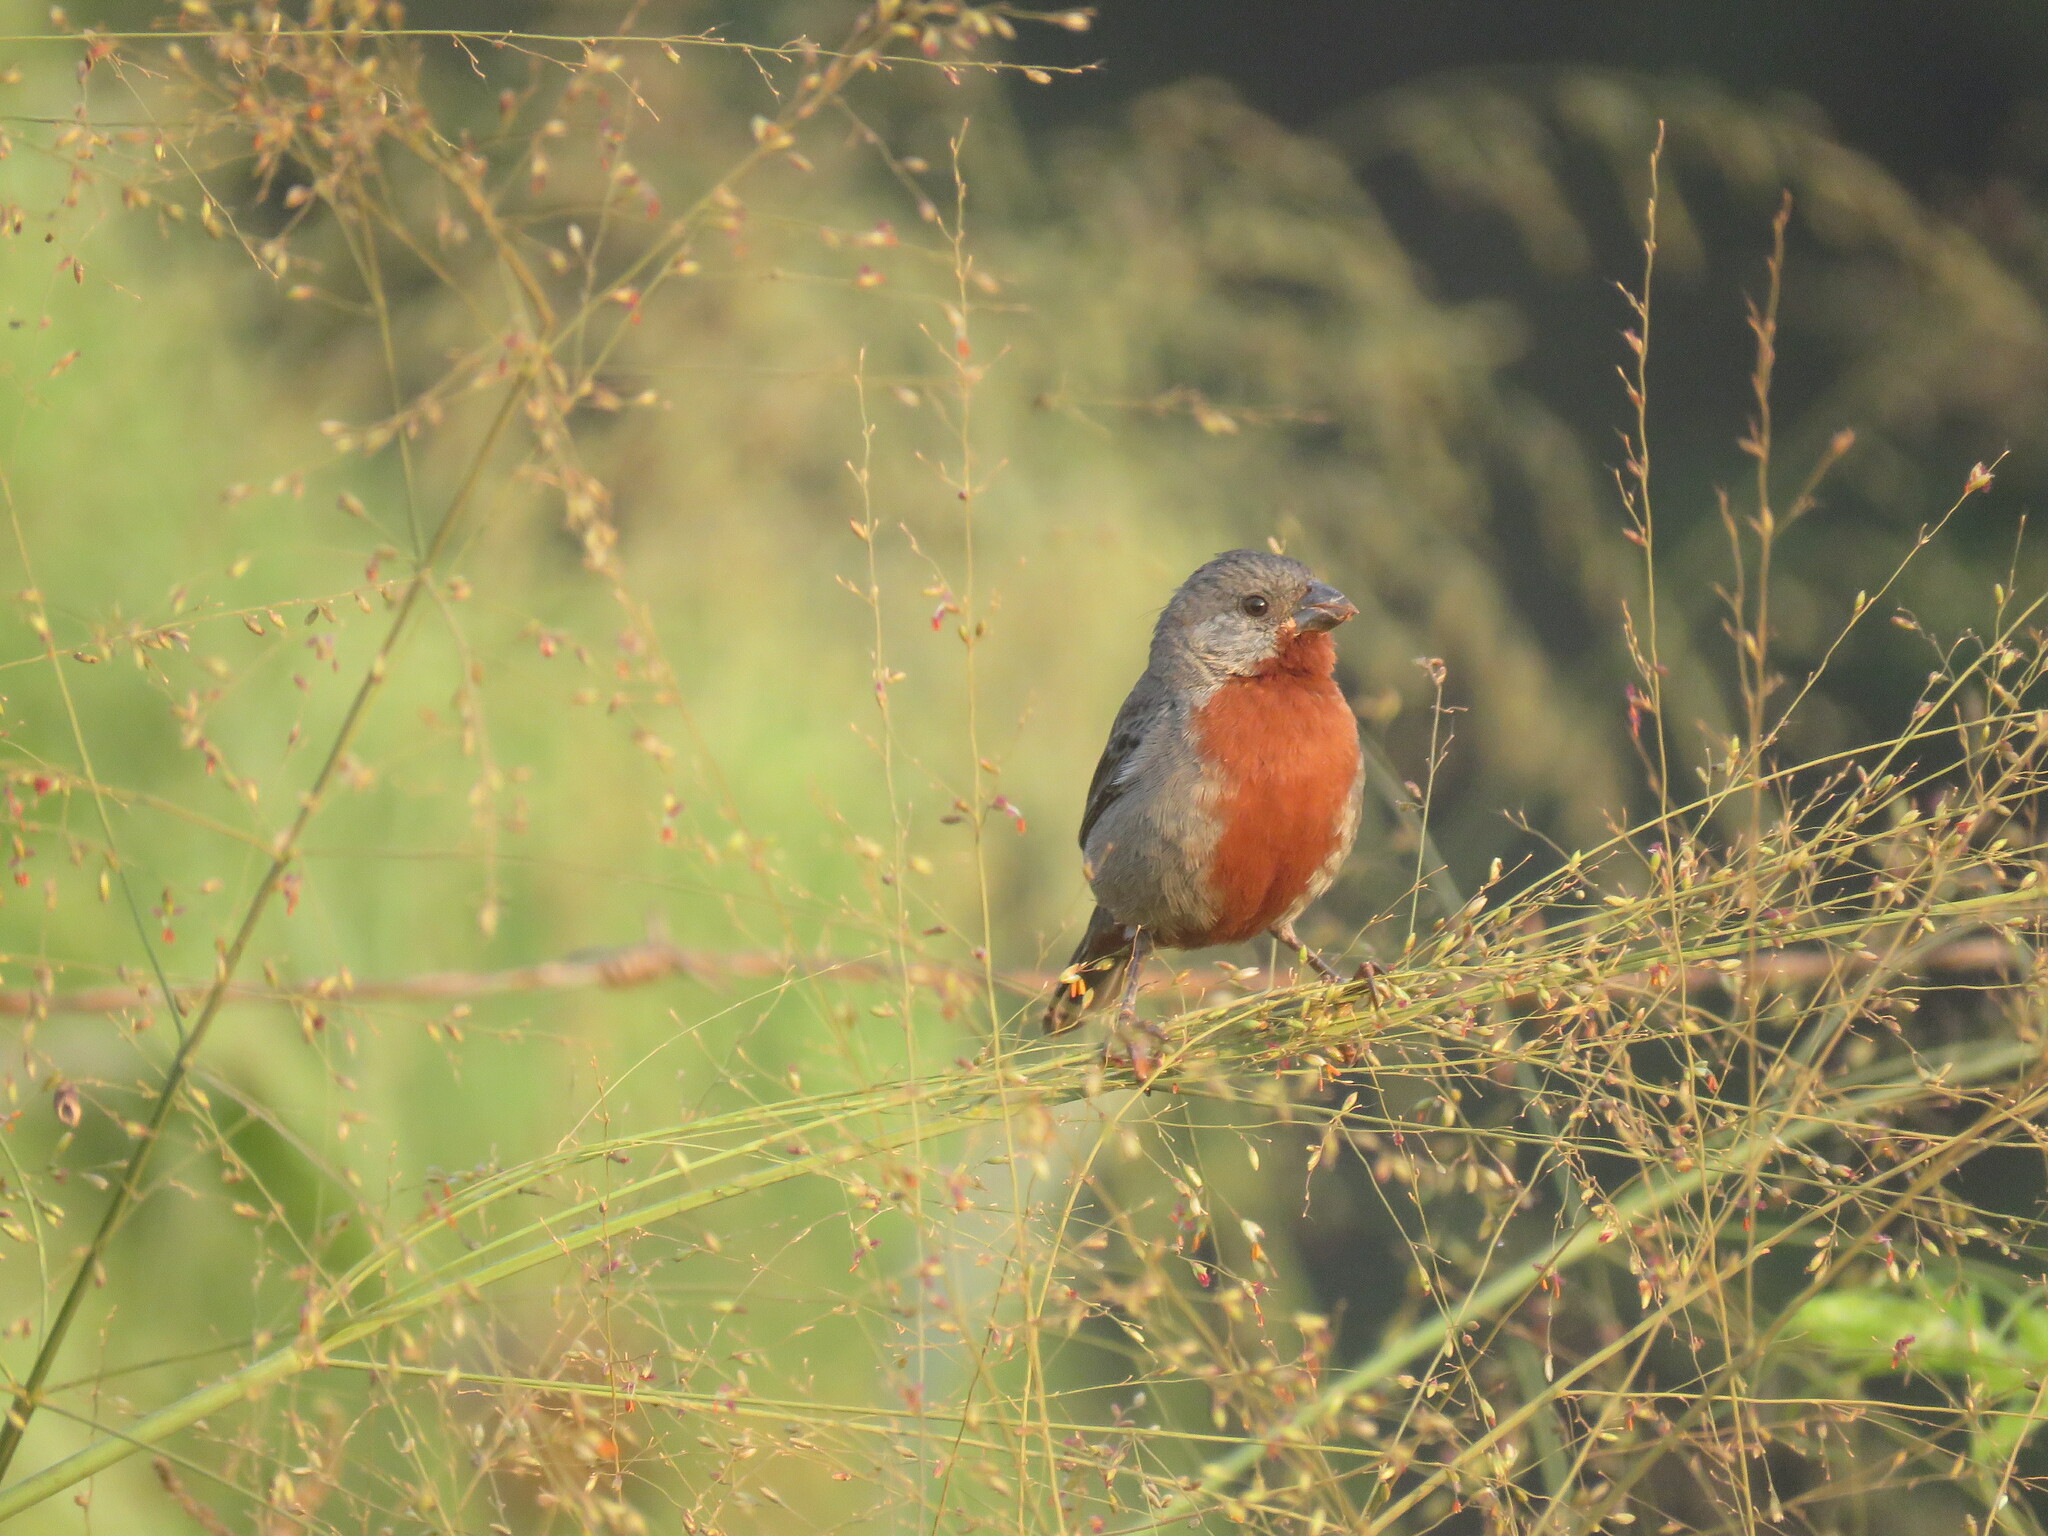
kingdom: Animalia
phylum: Chordata
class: Aves
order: Passeriformes
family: Thraupidae
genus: Sporophila
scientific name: Sporophila castaneiventris
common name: Chestnut-bellied seedeater
